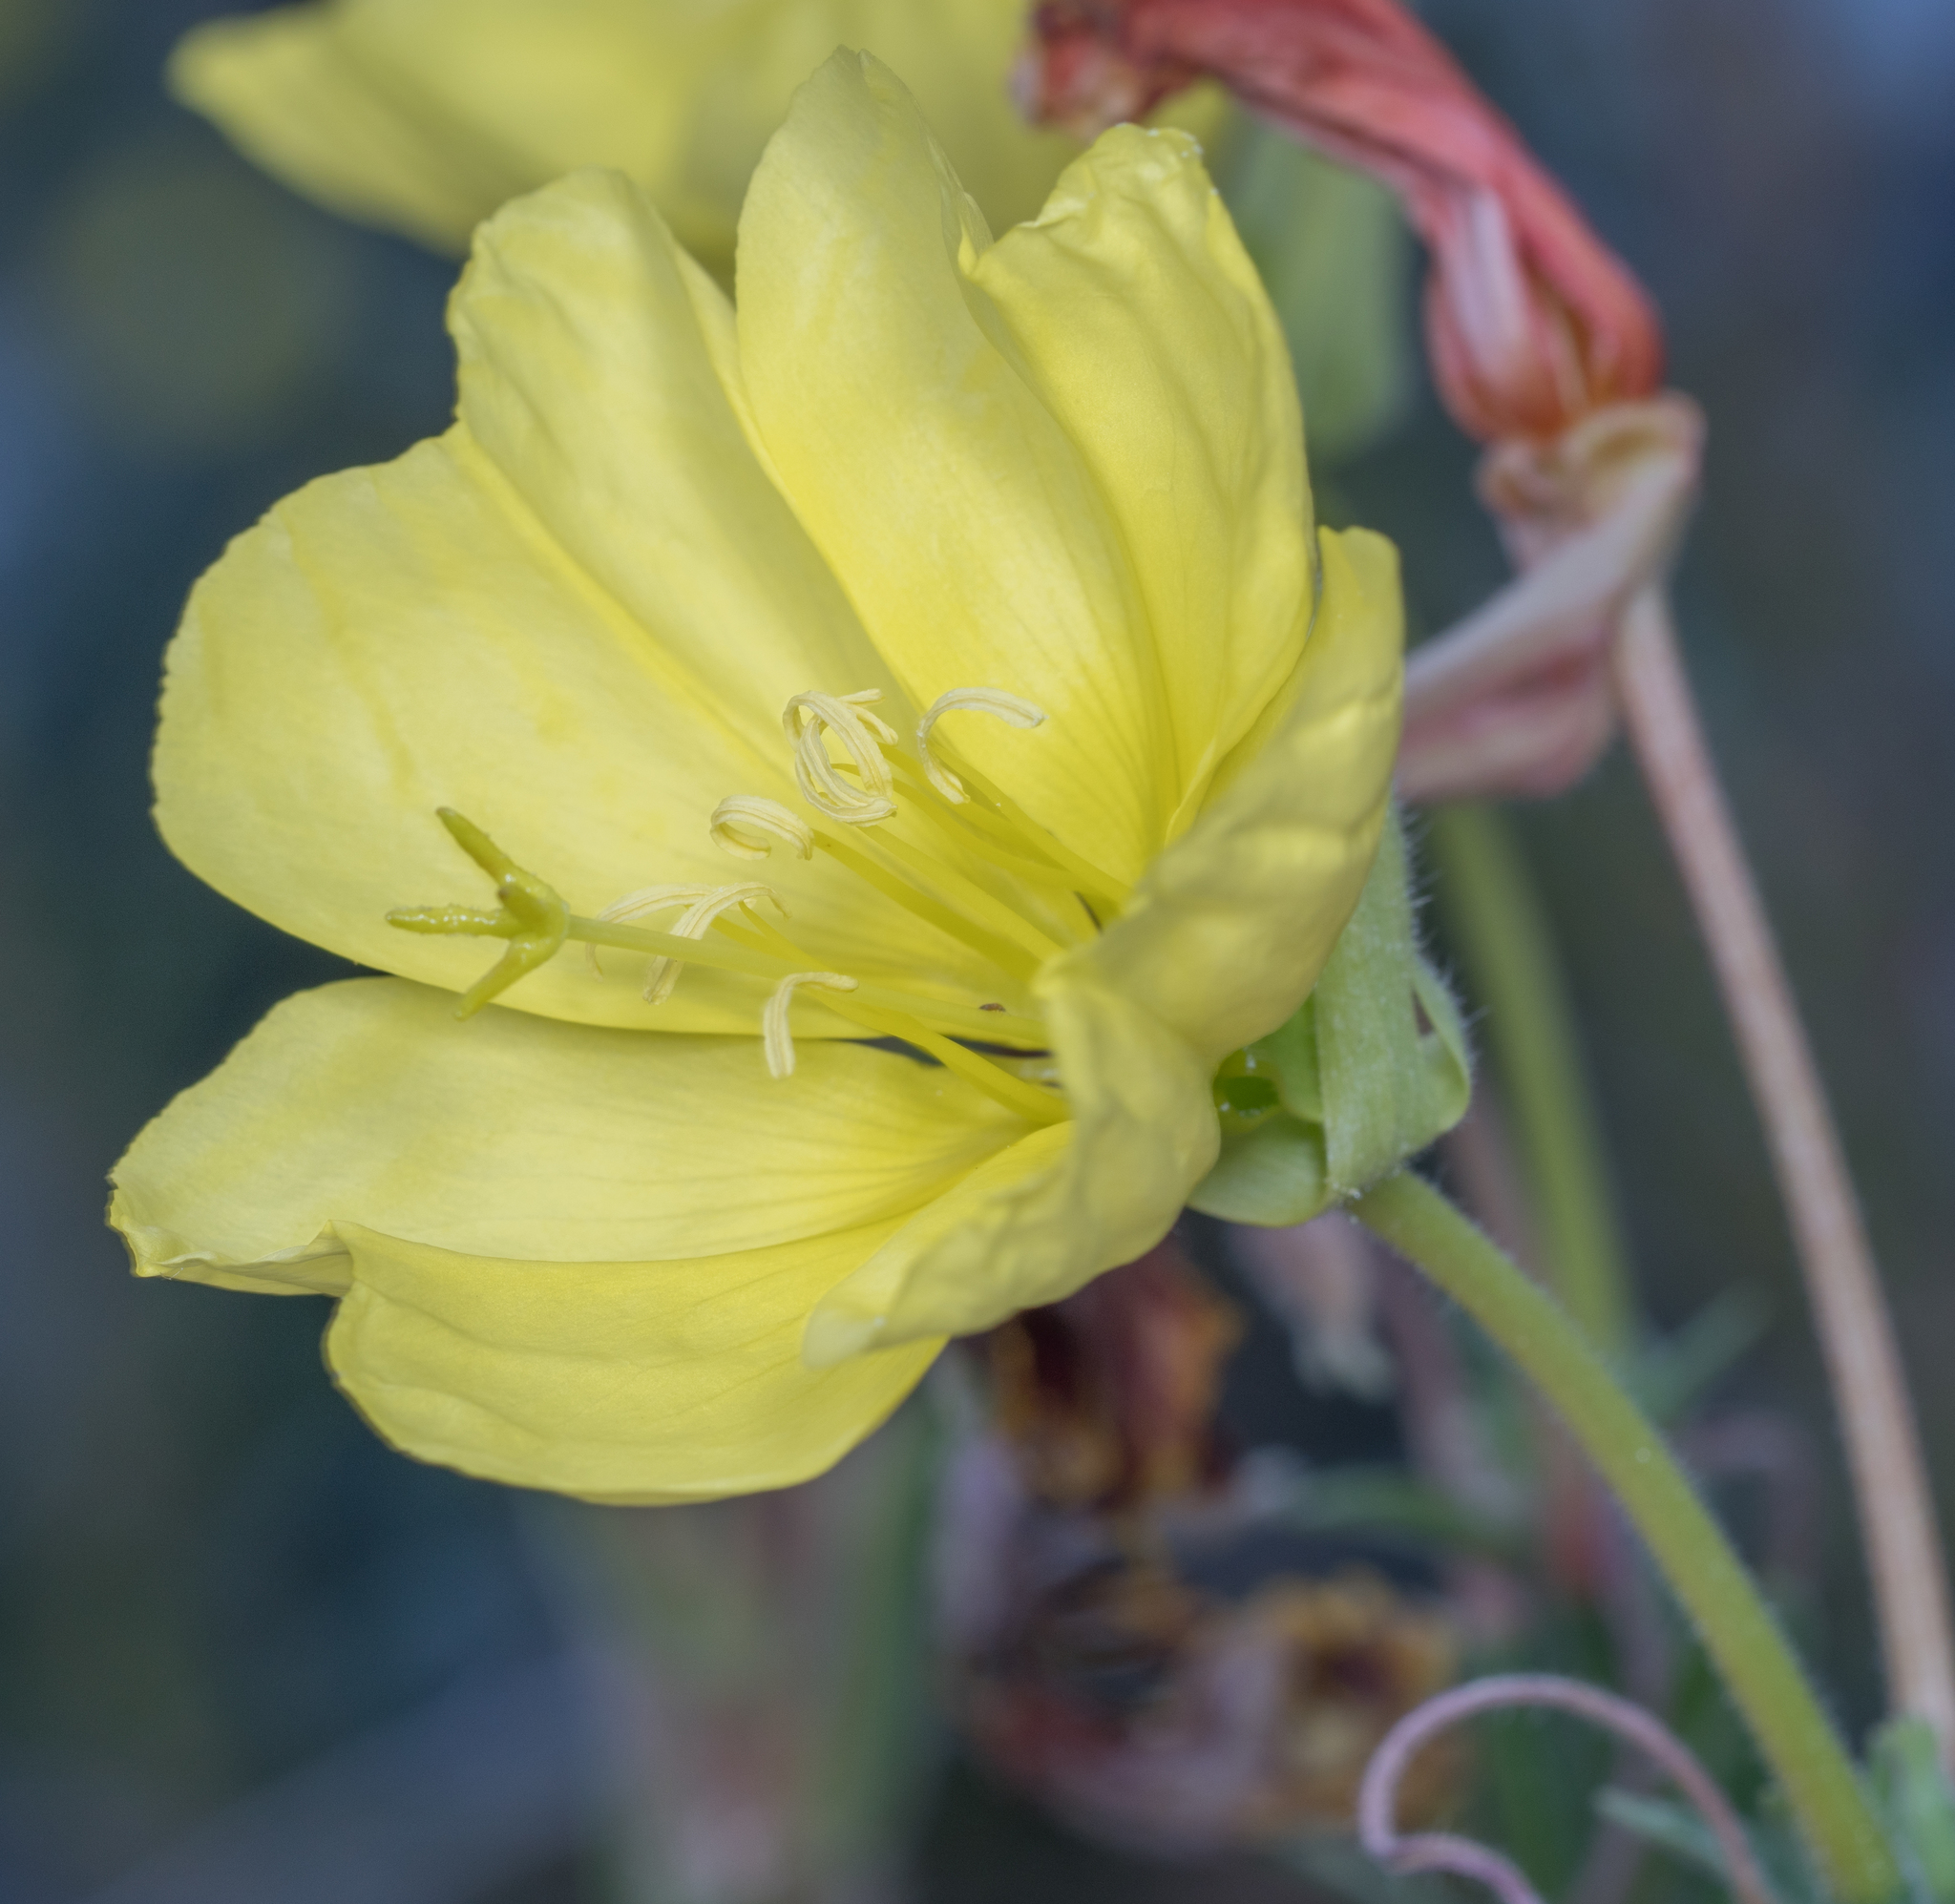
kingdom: Plantae
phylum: Tracheophyta
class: Magnoliopsida
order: Myrtales
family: Onagraceae
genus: Oenothera
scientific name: Oenothera elata
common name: Hooker's evening-primrose
